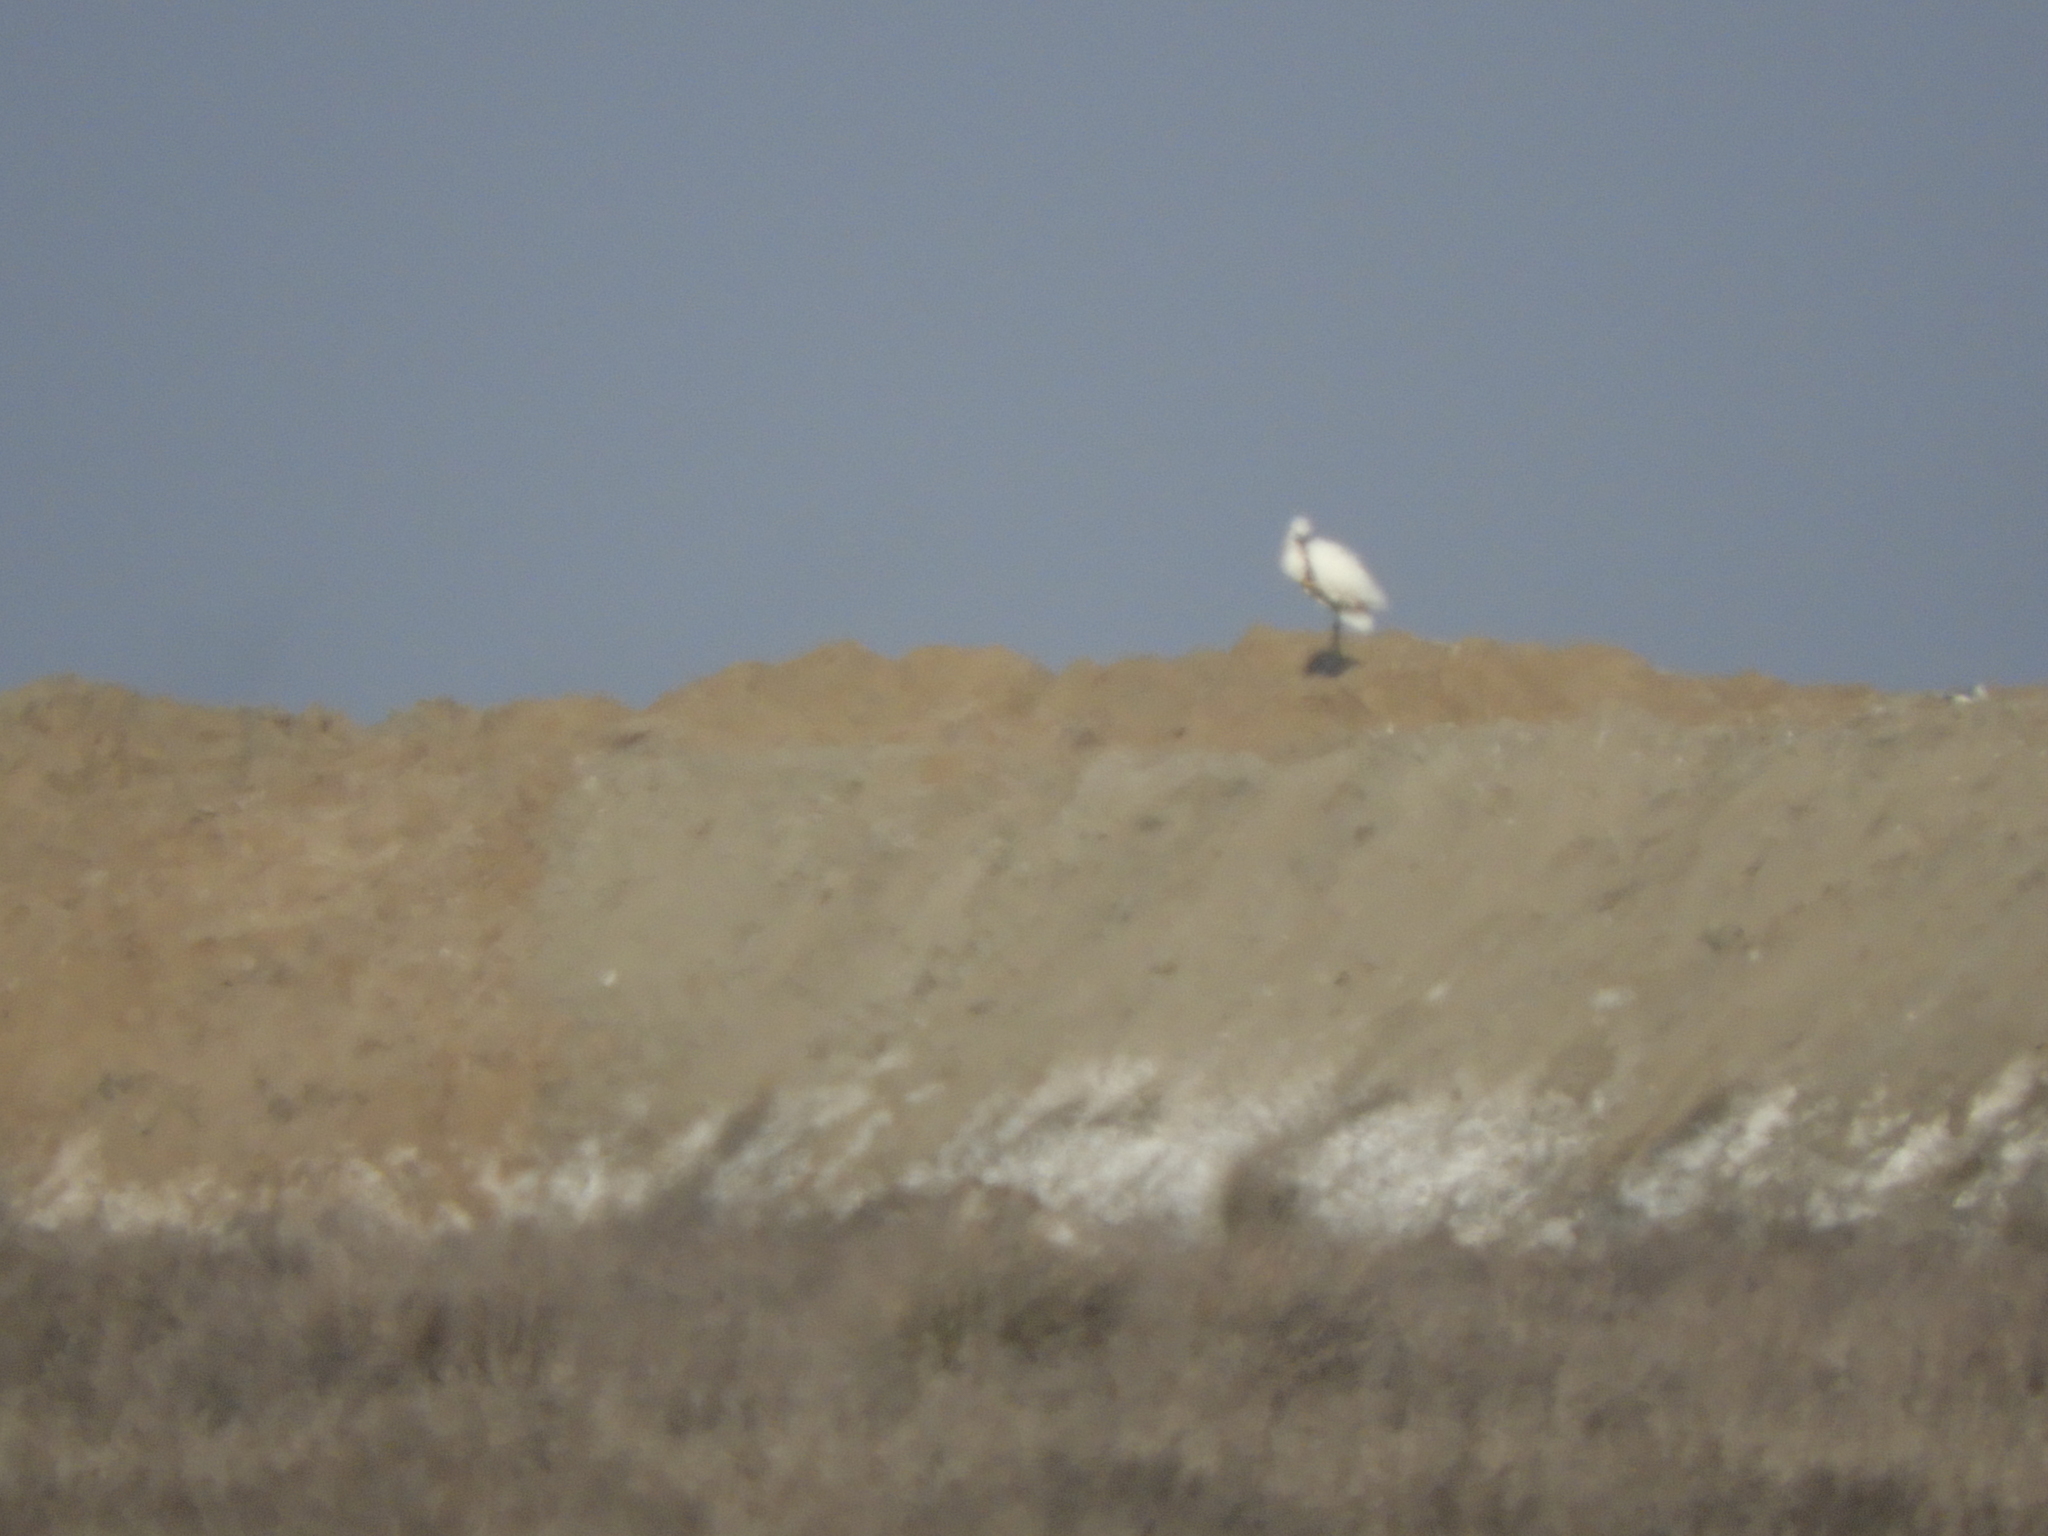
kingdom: Animalia
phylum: Chordata
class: Aves
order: Pelecaniformes
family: Threskiornithidae
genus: Platalea
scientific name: Platalea leucorodia
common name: Eurasian spoonbill
